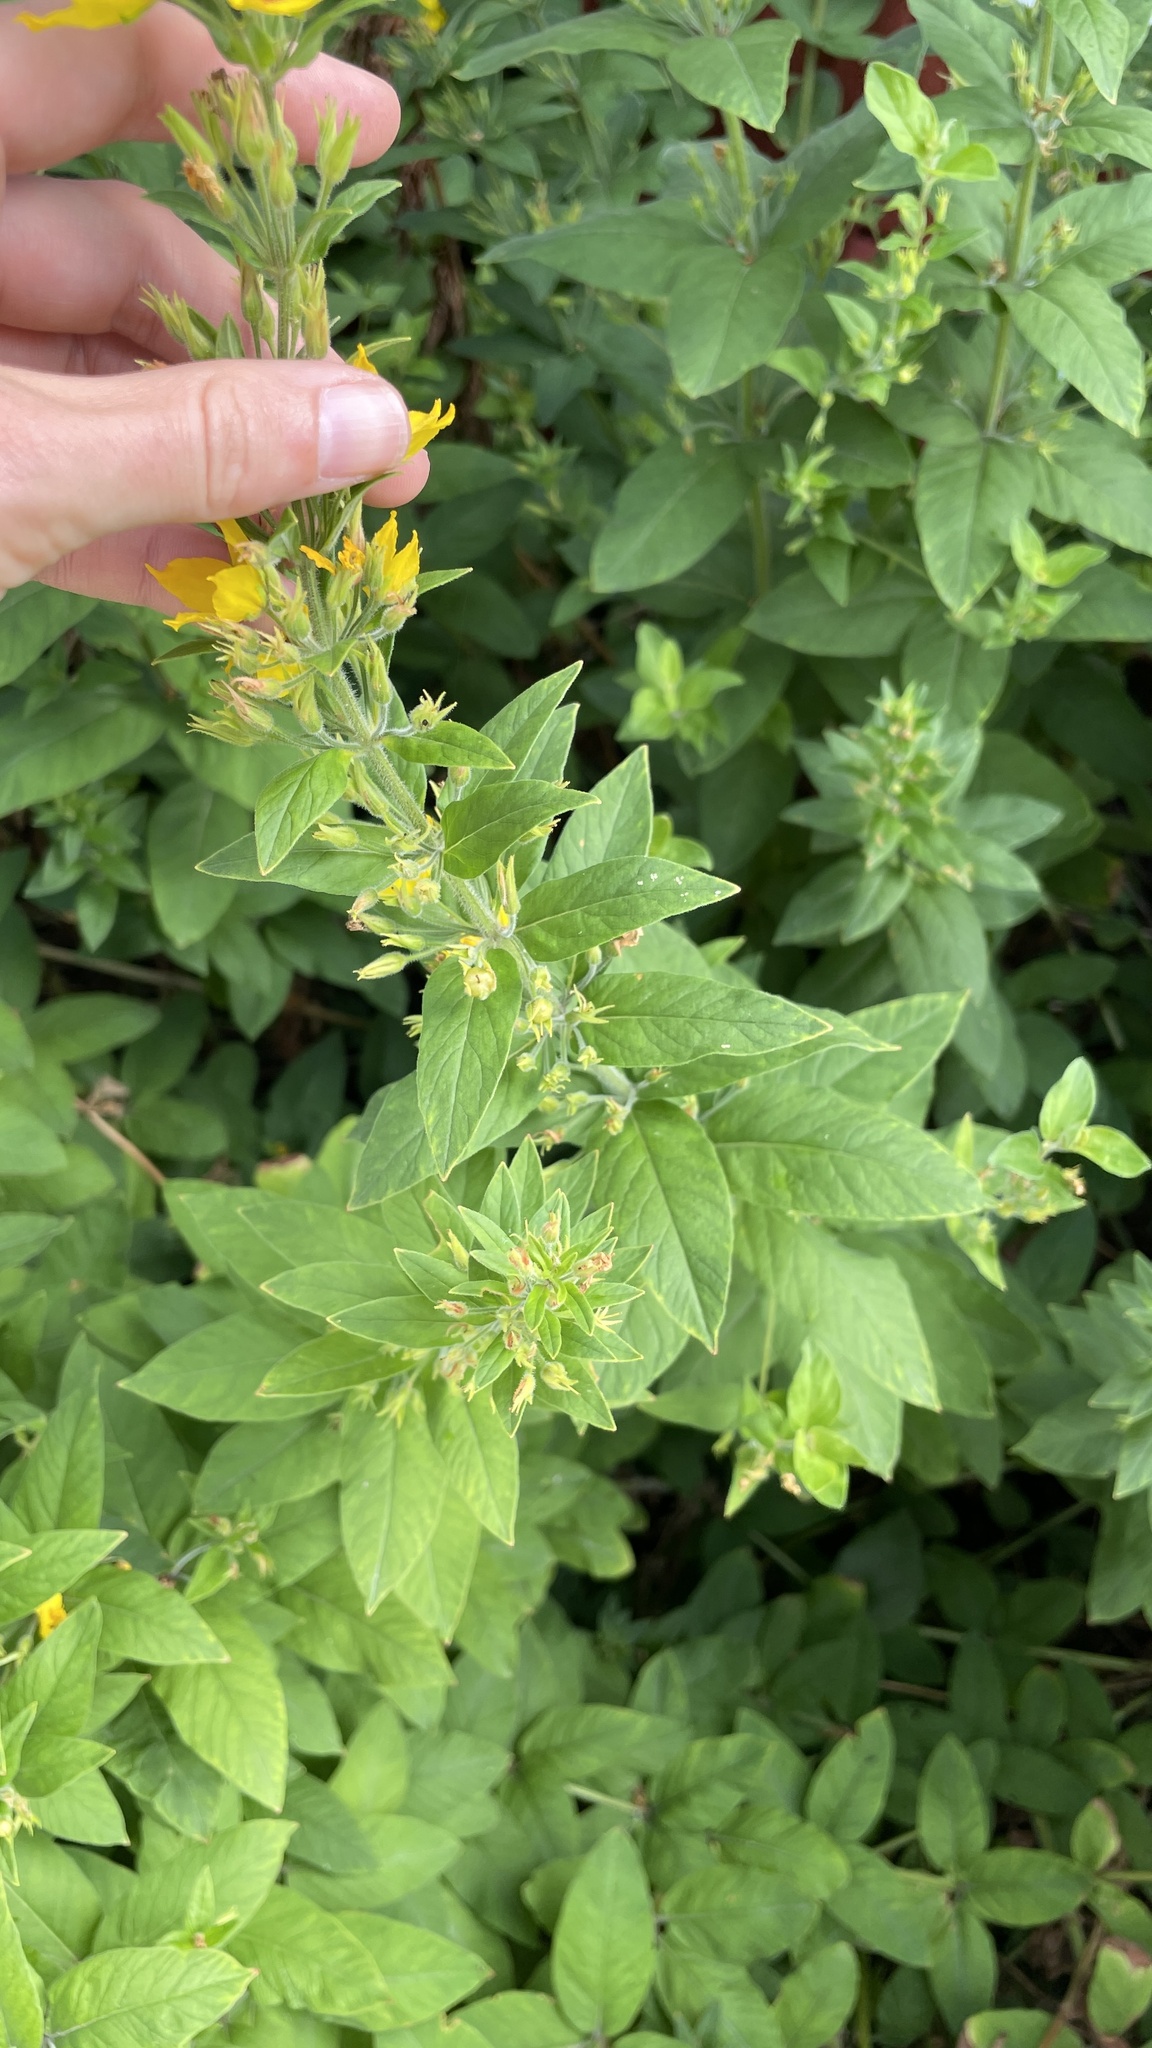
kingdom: Plantae
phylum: Tracheophyta
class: Magnoliopsida
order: Ericales
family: Primulaceae
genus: Lysimachia
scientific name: Lysimachia punctata
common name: Dotted loosestrife
